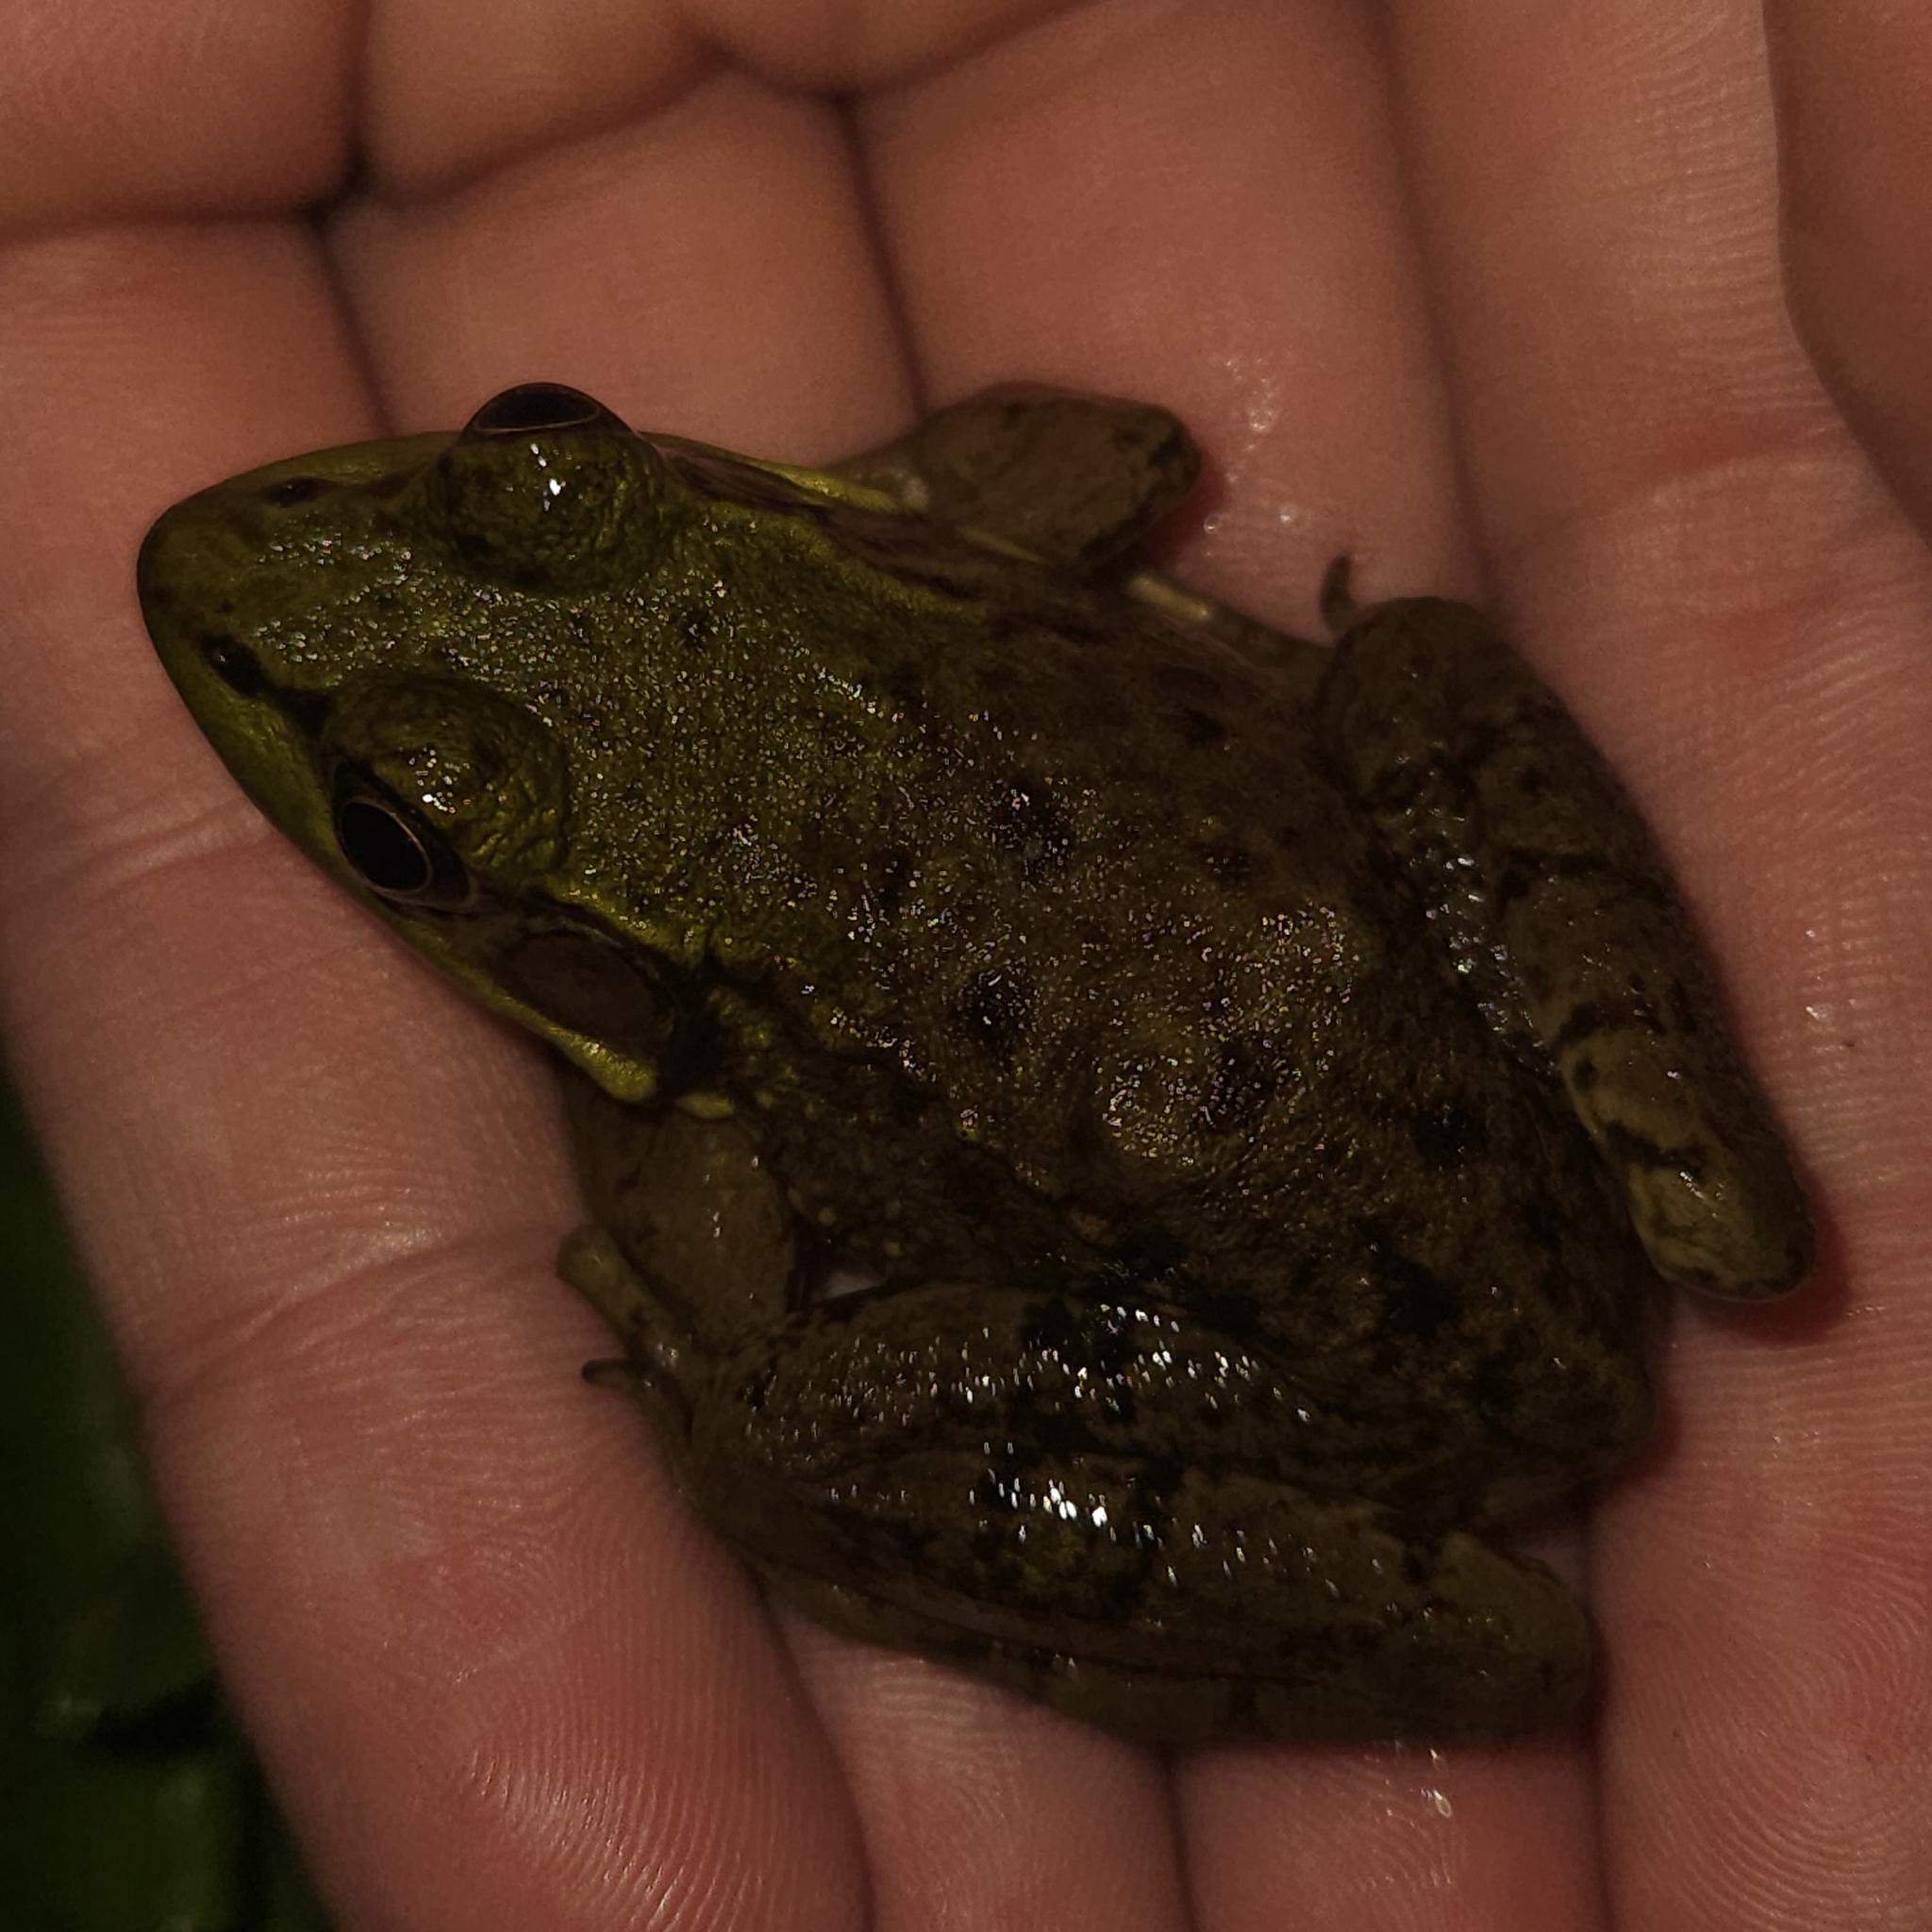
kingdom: Animalia
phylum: Chordata
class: Amphibia
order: Anura
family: Ranidae
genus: Lithobates
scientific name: Lithobates clamitans
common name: Green frog
